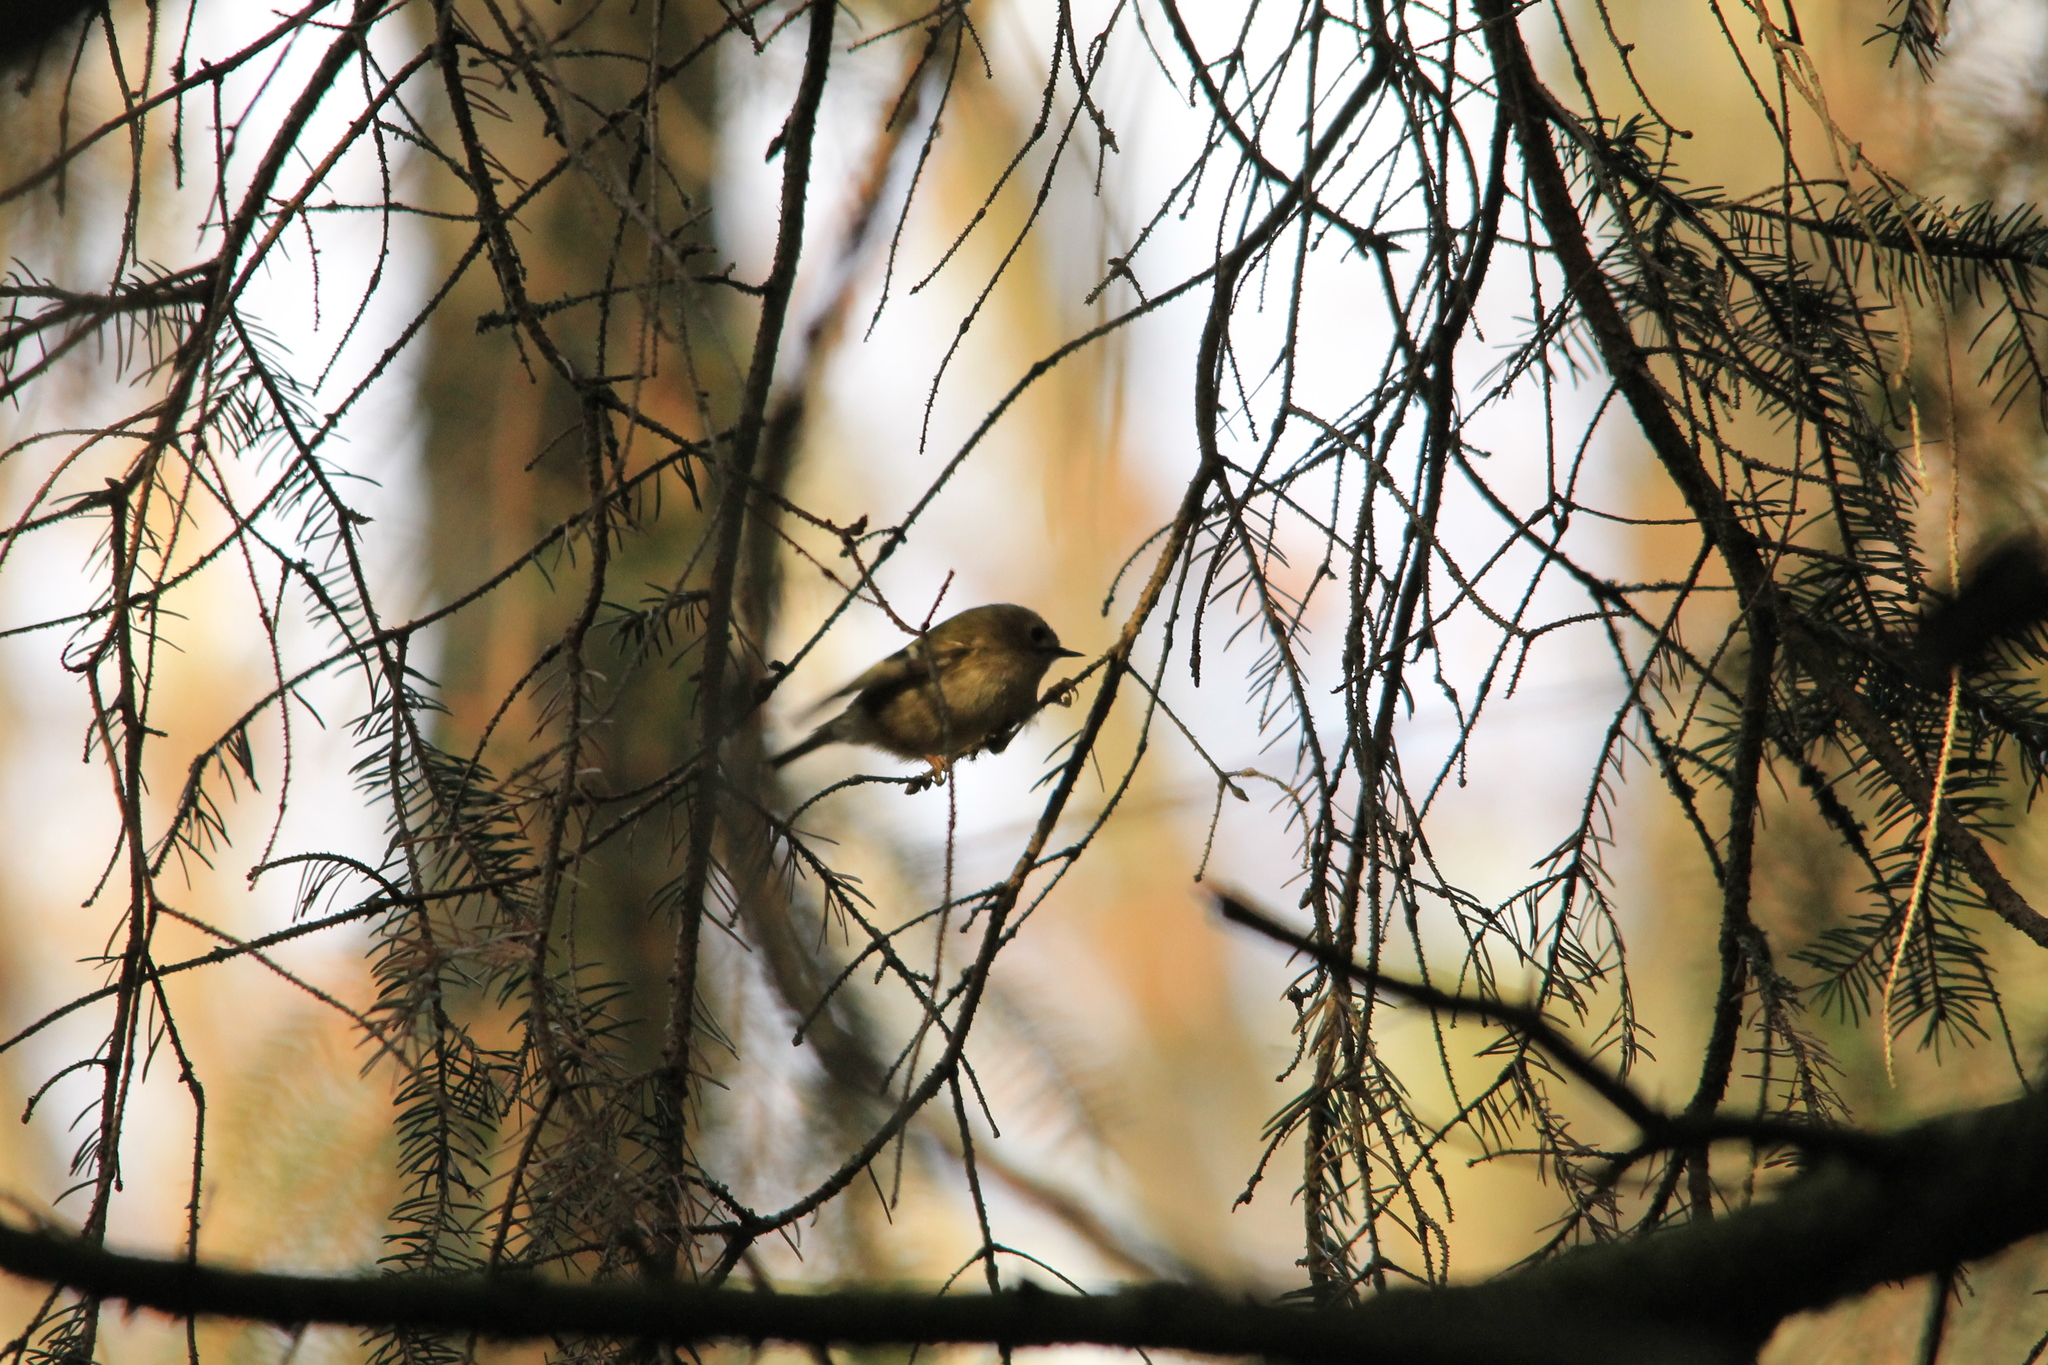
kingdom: Animalia
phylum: Chordata
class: Aves
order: Passeriformes
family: Regulidae
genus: Regulus
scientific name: Regulus regulus
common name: Goldcrest
